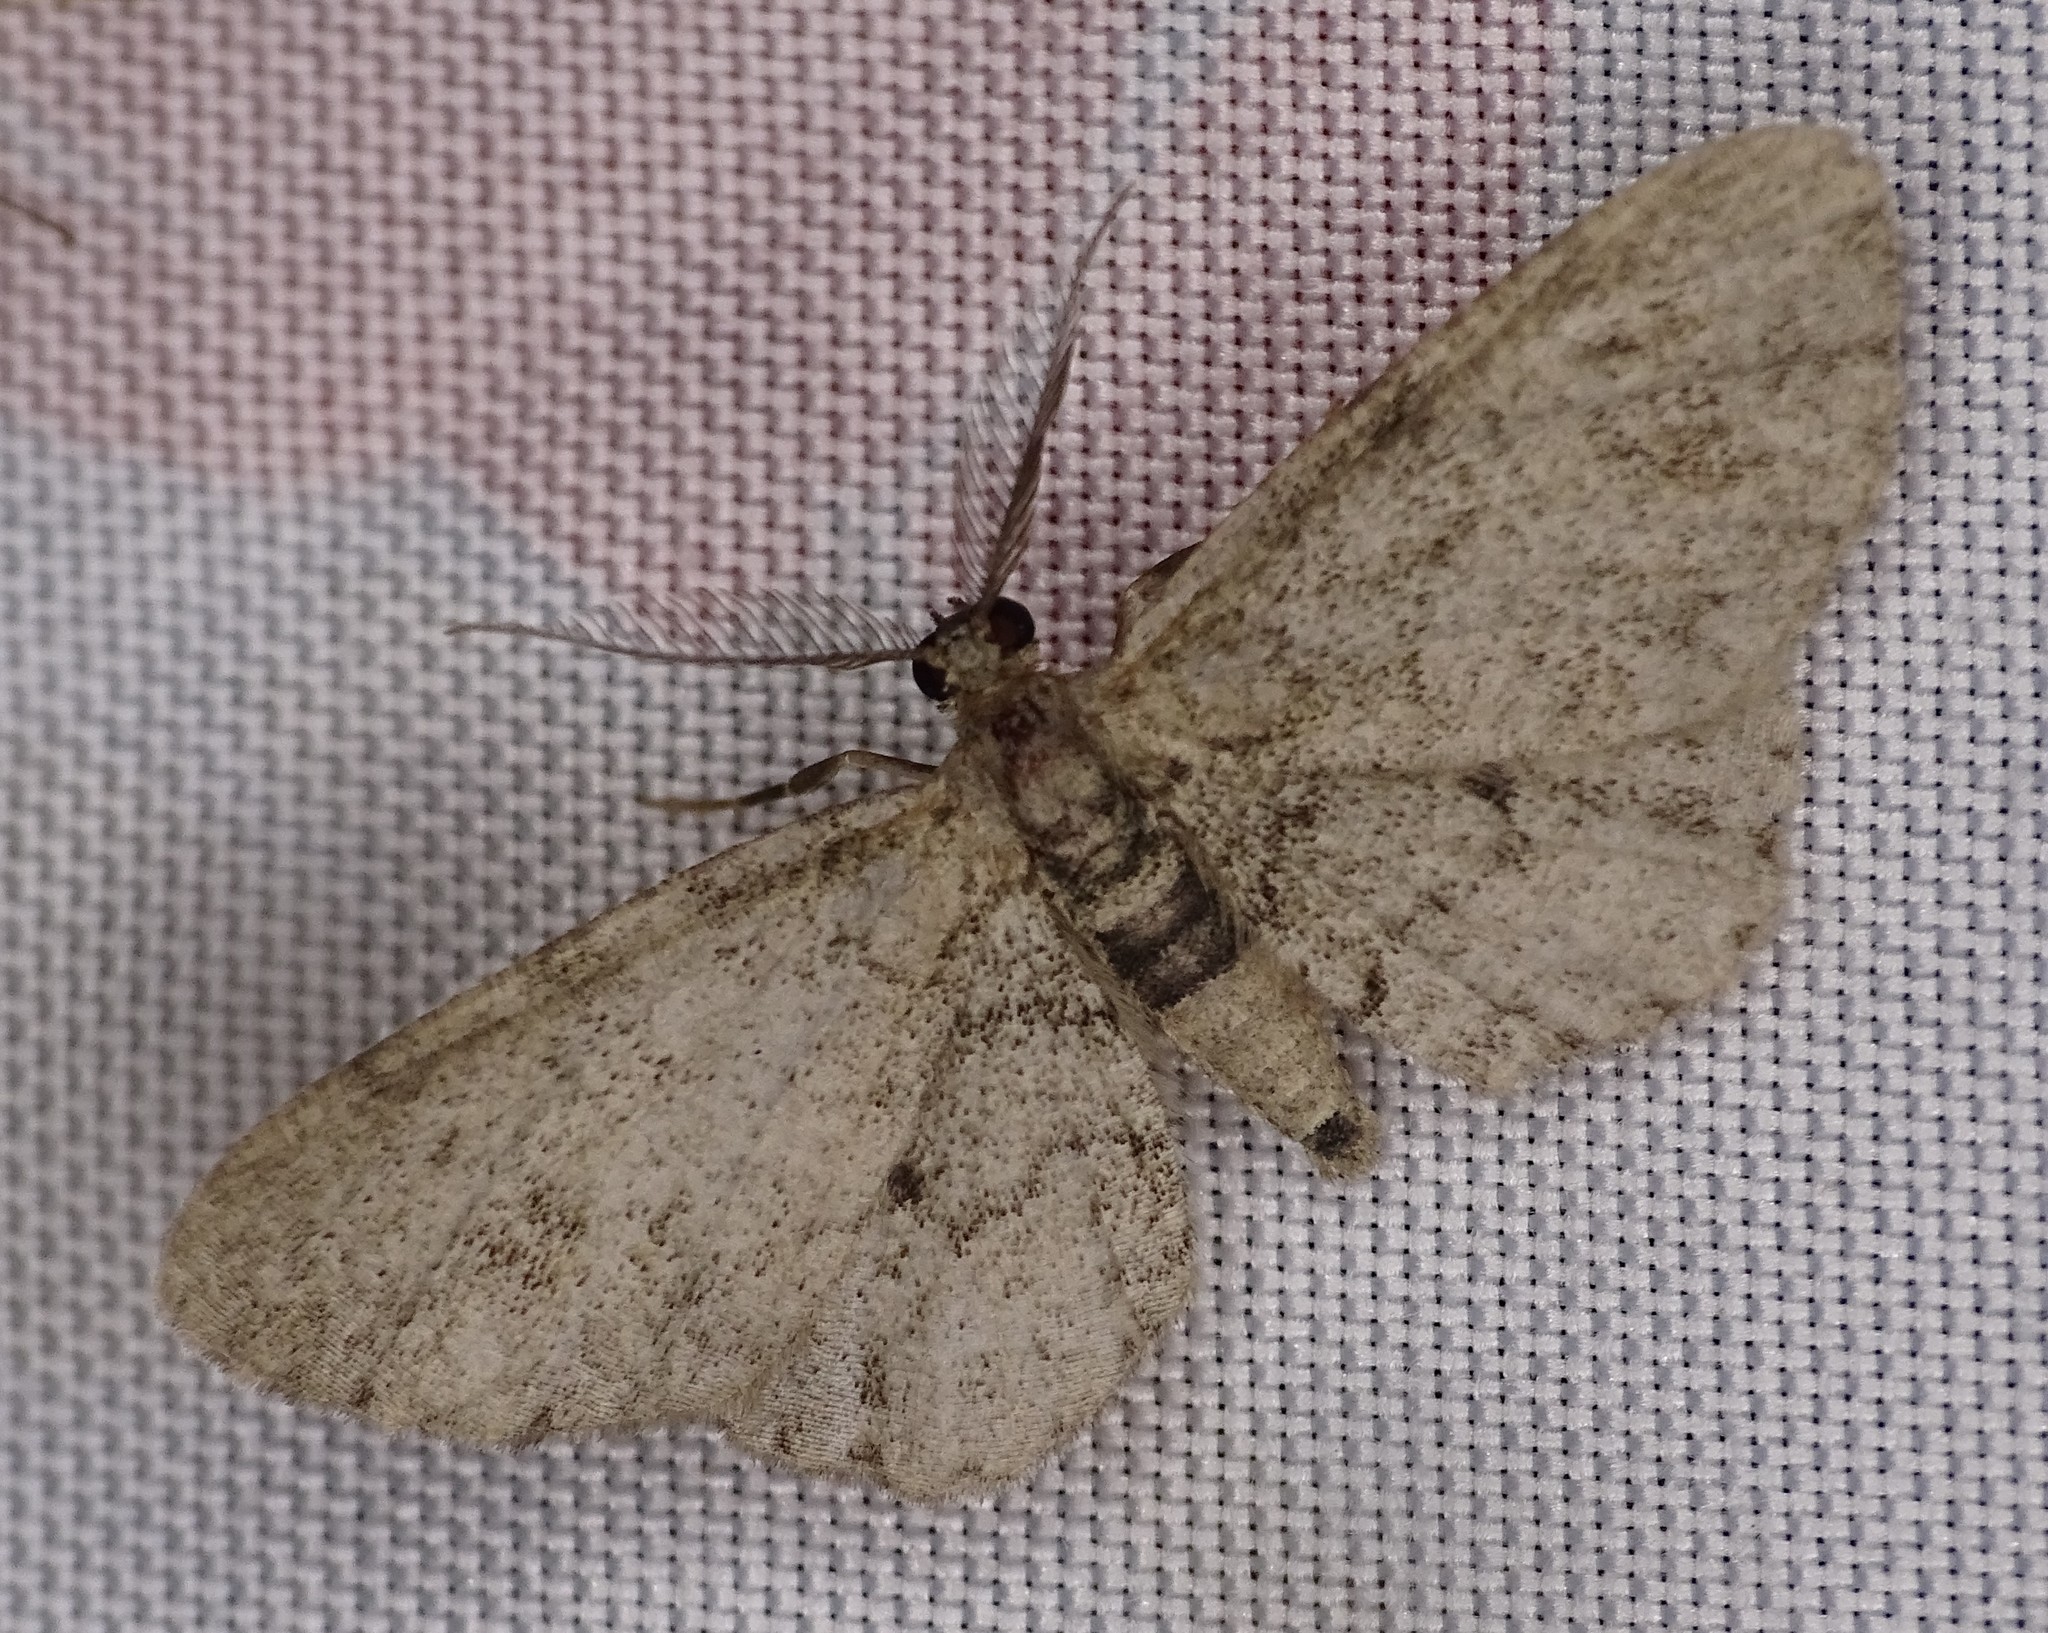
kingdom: Animalia
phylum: Arthropoda
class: Insecta
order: Lepidoptera
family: Geometridae
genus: Glenoides
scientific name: Glenoides texanaria
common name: Texas gray
